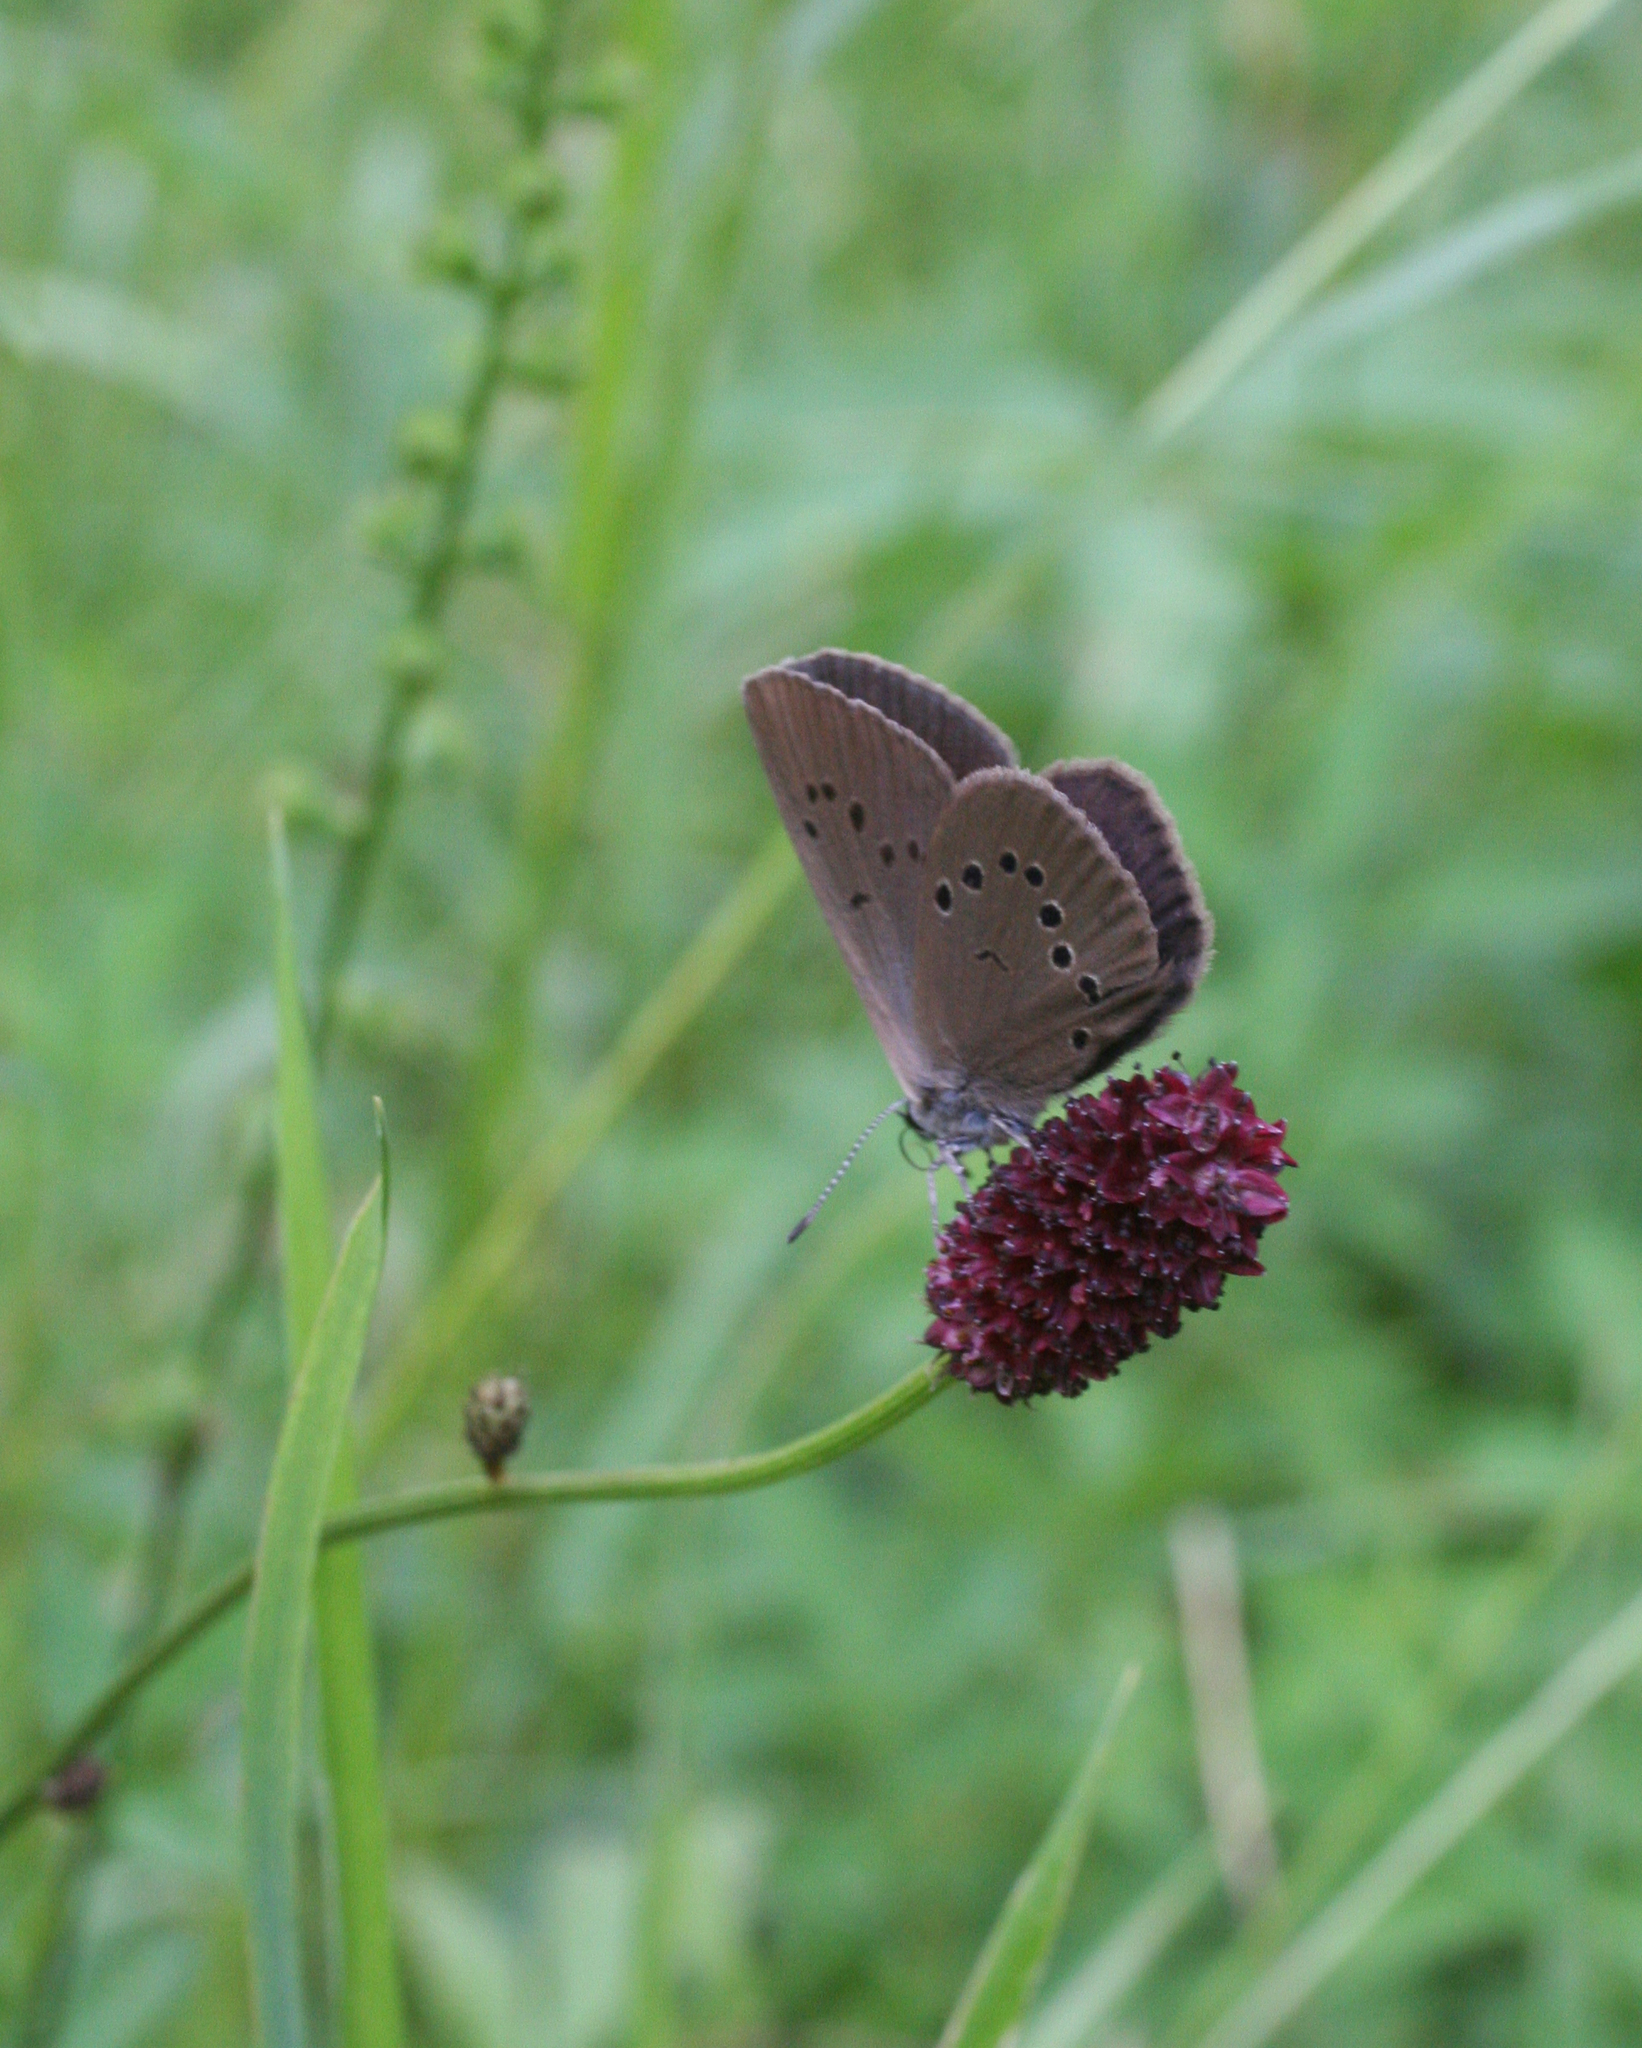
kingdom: Animalia
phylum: Arthropoda
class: Insecta
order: Lepidoptera
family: Lycaenidae
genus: Maculinea
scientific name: Maculinea nausithous
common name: Dusky large blue
